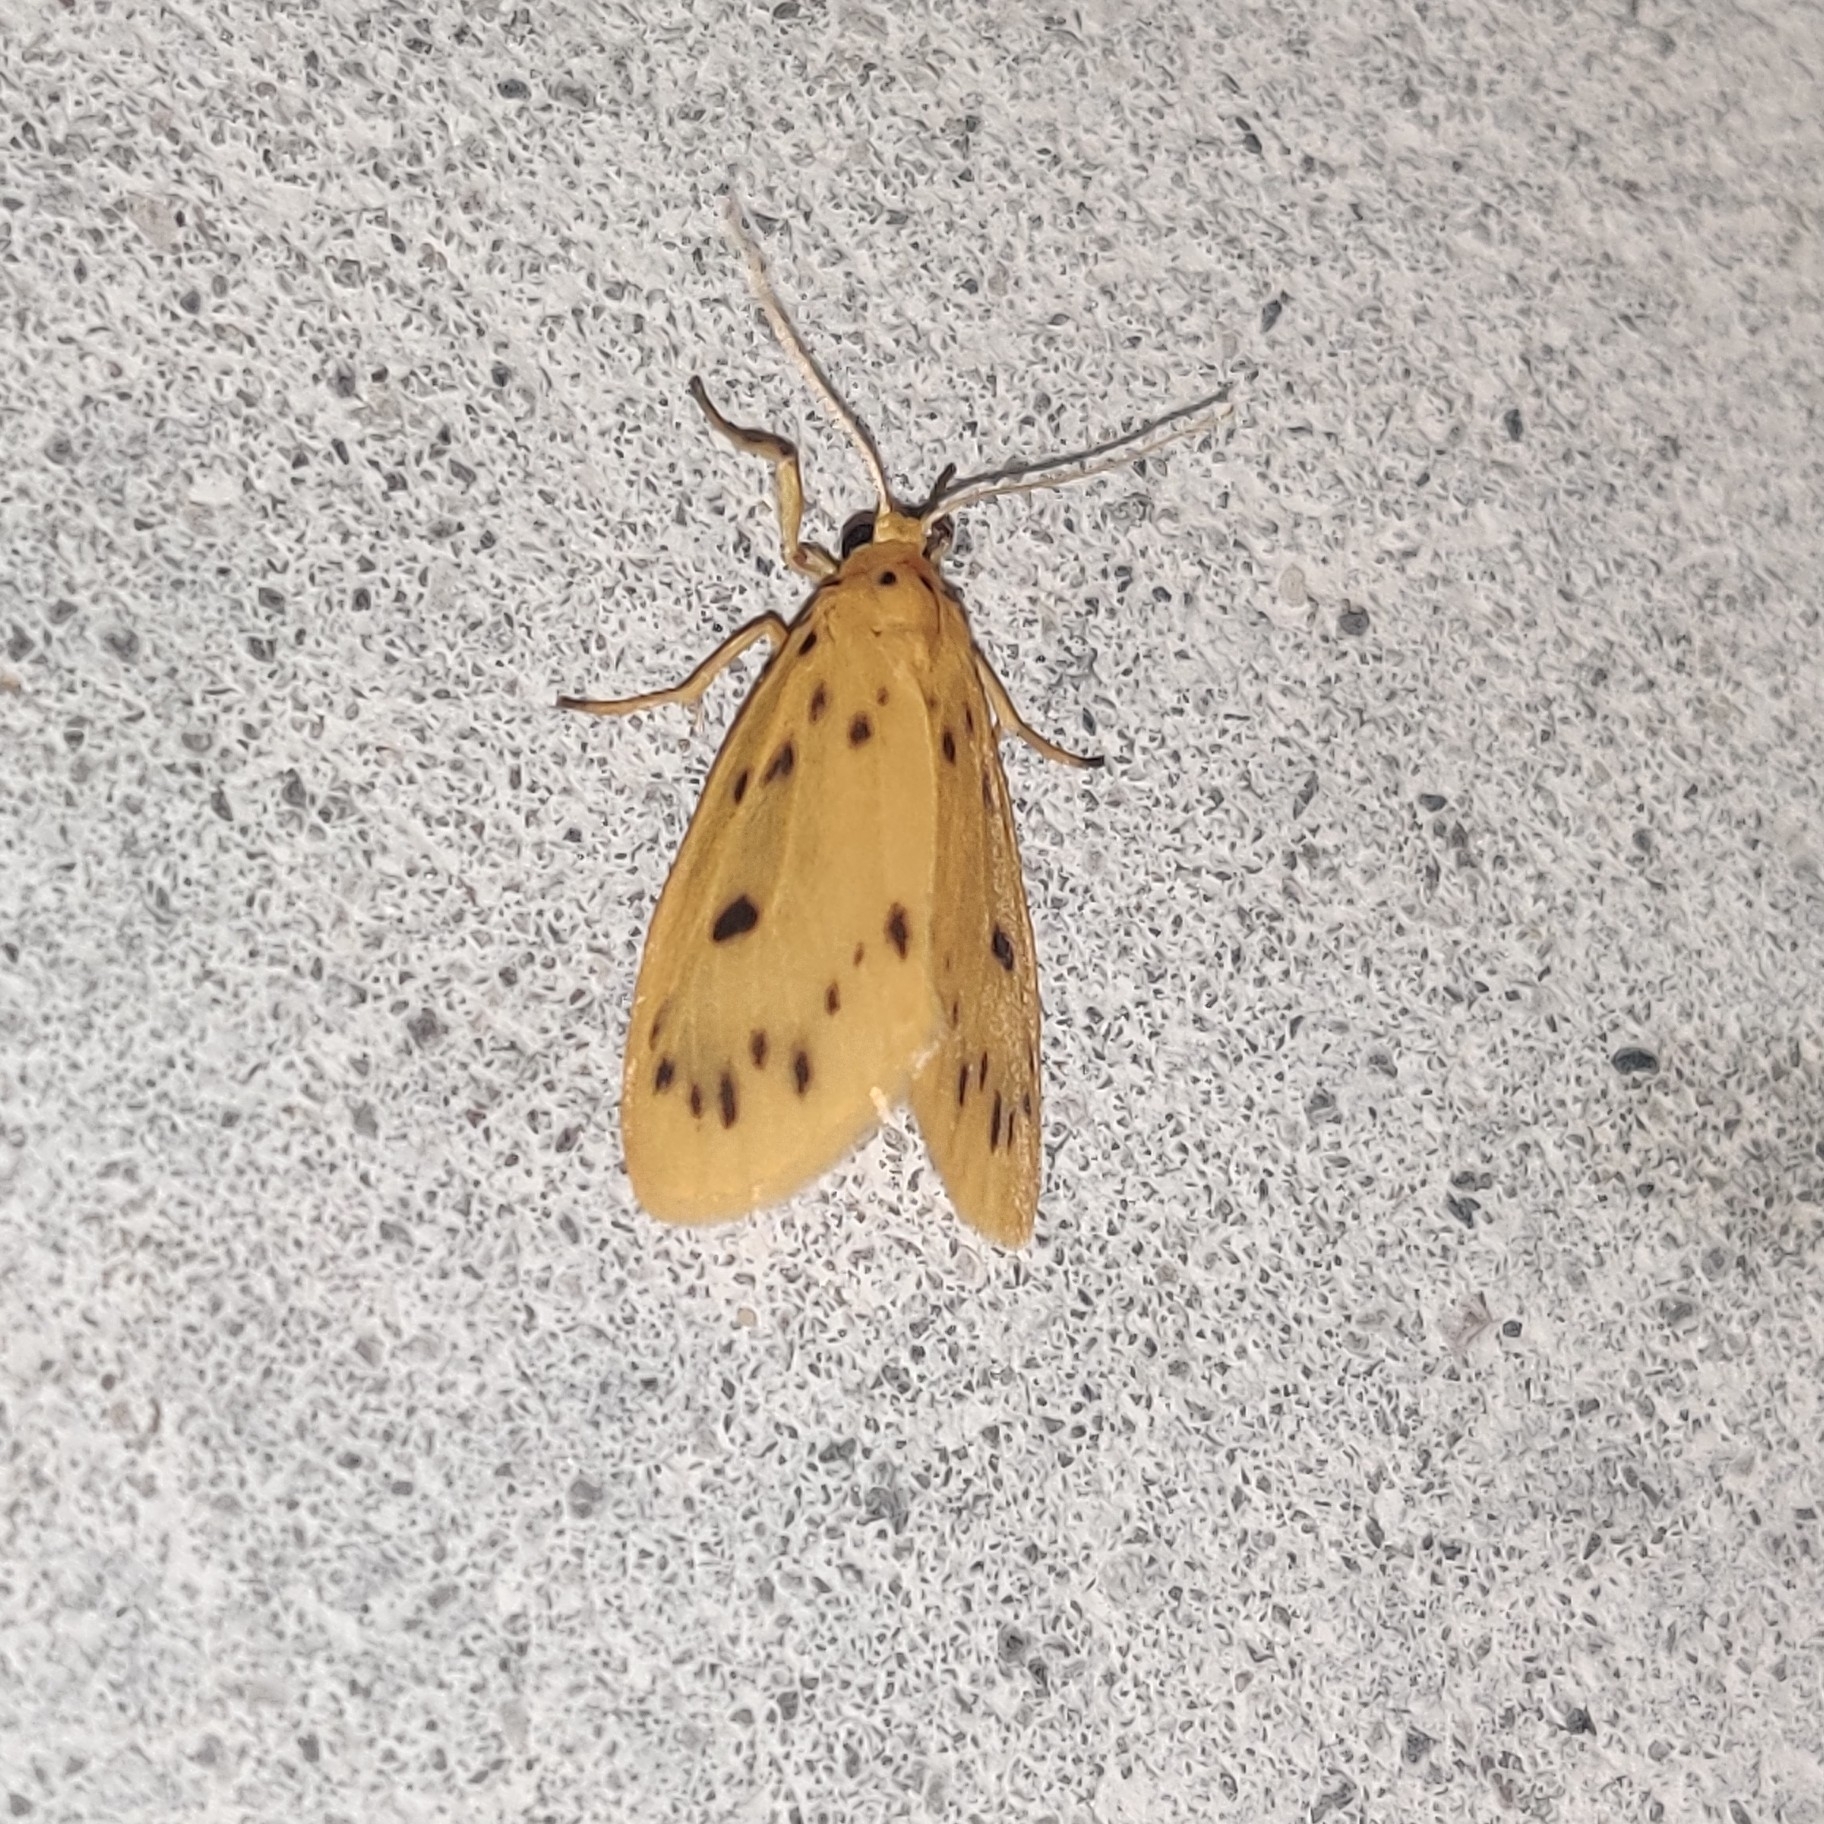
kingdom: Animalia
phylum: Arthropoda
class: Insecta
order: Lepidoptera
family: Erebidae
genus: Miltochrista
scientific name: Miltochrista dharma
